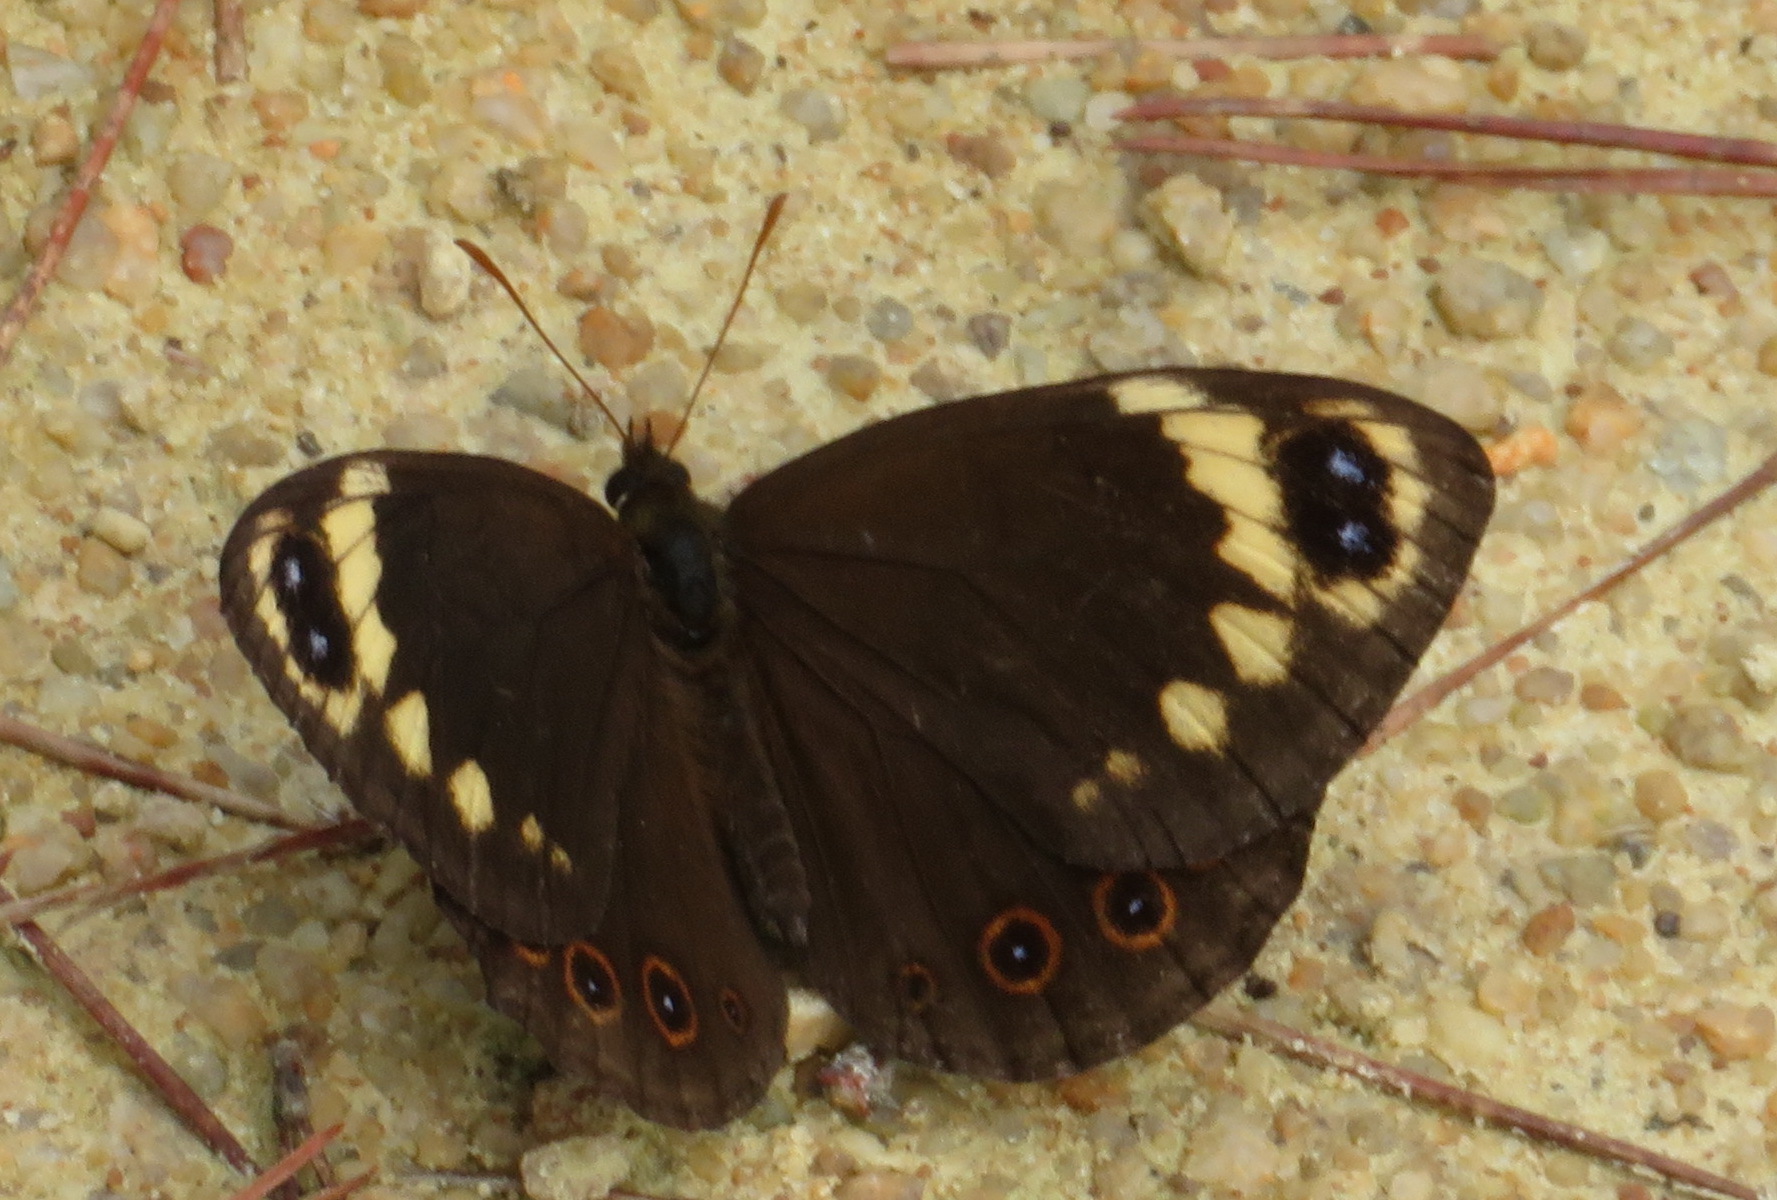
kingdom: Animalia
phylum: Arthropoda
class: Insecta
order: Lepidoptera
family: Nymphalidae
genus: Dira
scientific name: Dira clytus
